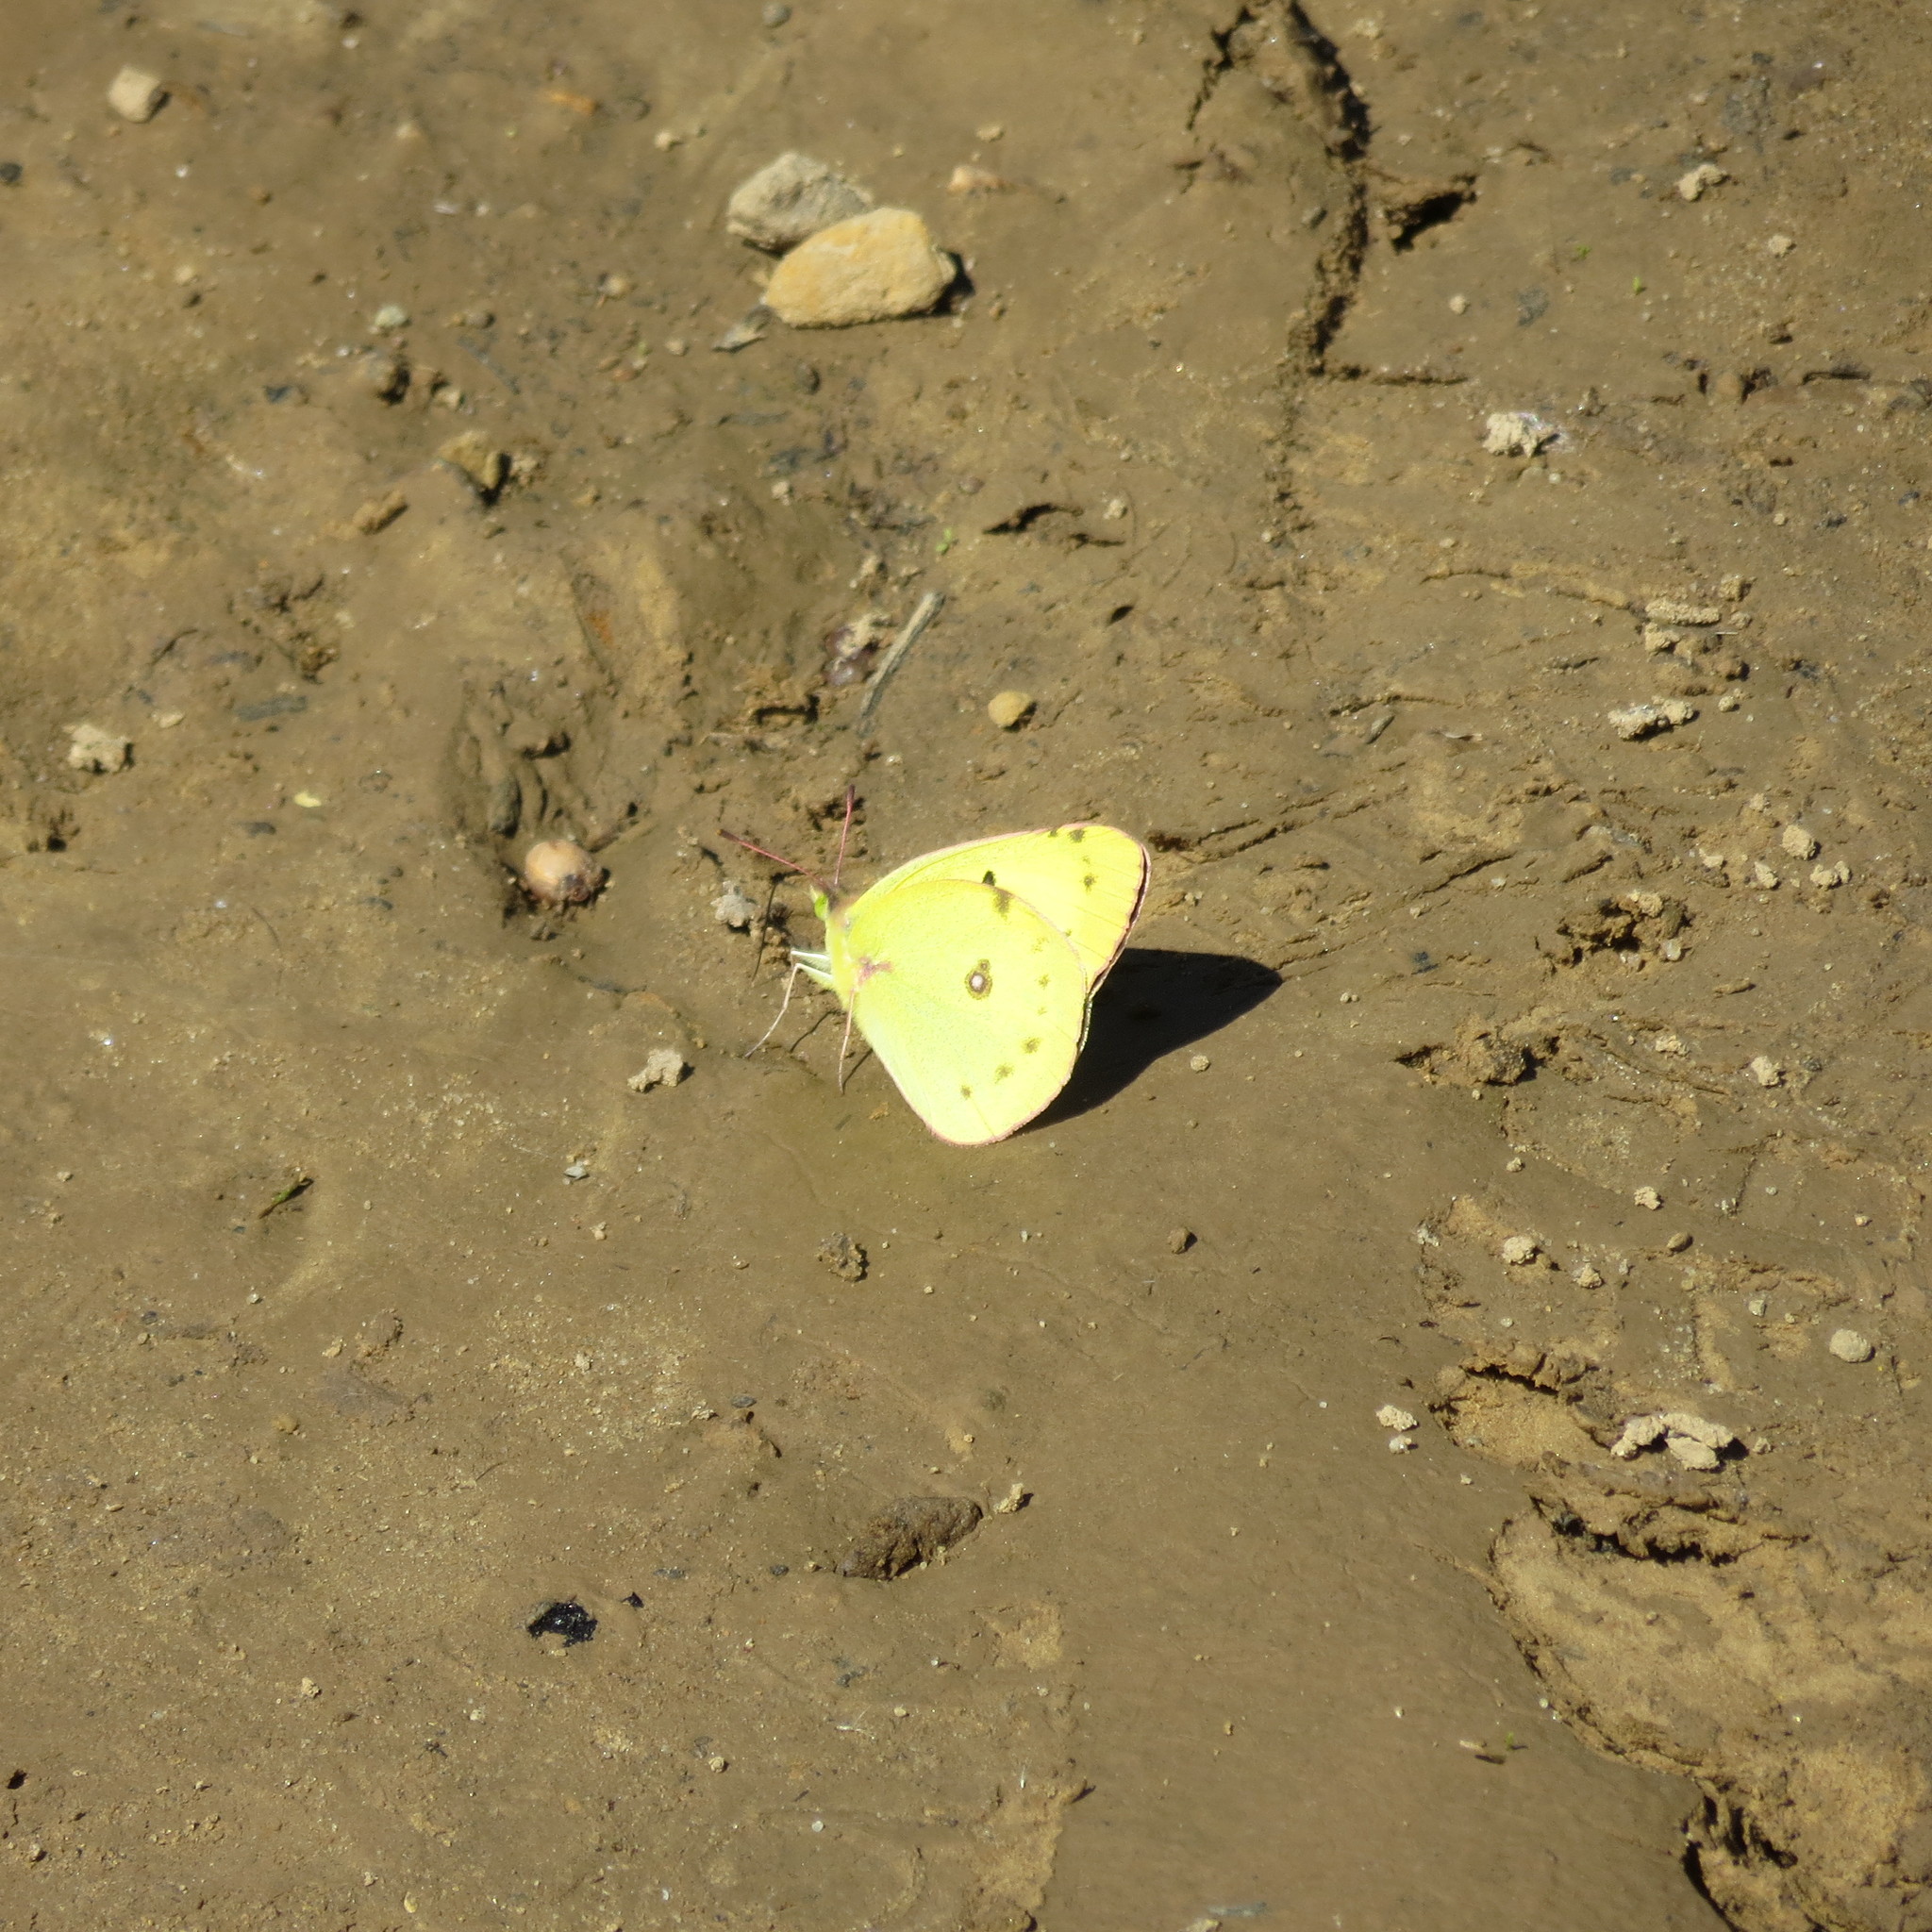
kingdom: Animalia
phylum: Arthropoda
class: Insecta
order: Lepidoptera
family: Pieridae
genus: Colias
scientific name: Colias eurytheme
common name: Alfalfa butterfly
